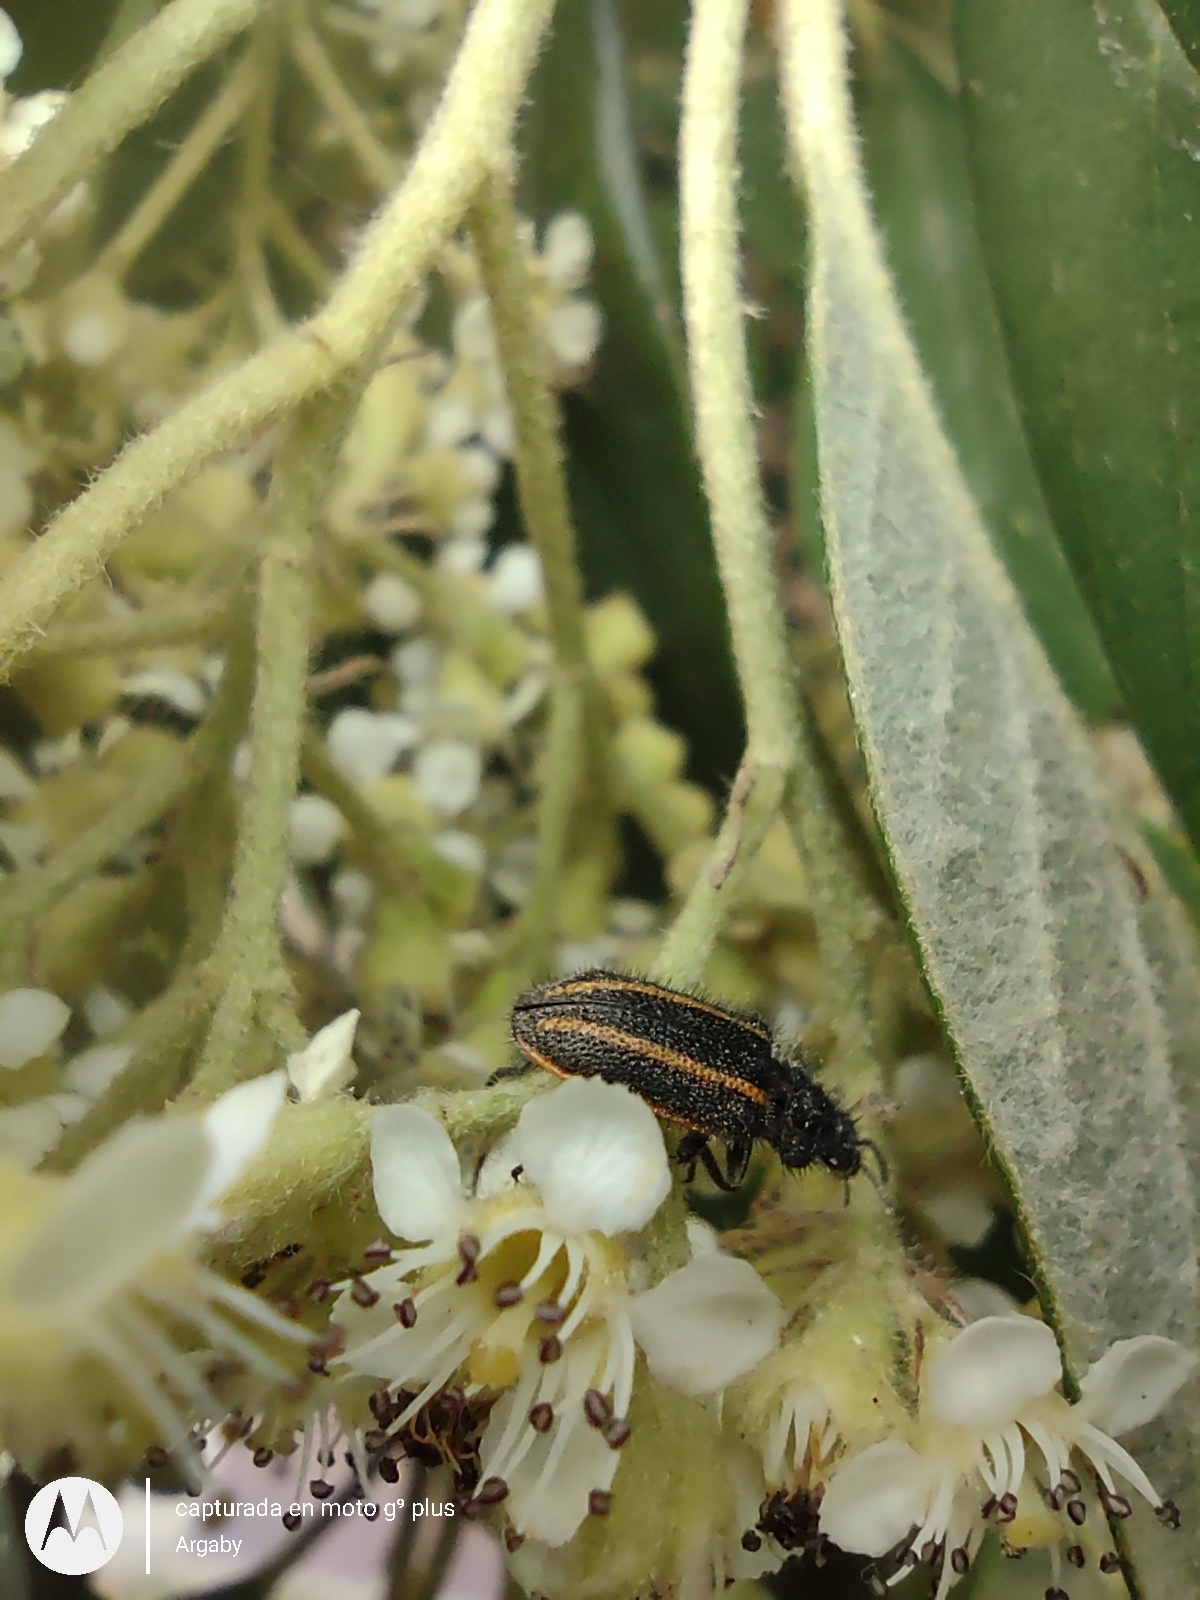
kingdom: Animalia
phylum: Arthropoda
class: Insecta
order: Coleoptera
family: Melyridae
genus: Astylus
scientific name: Astylus
